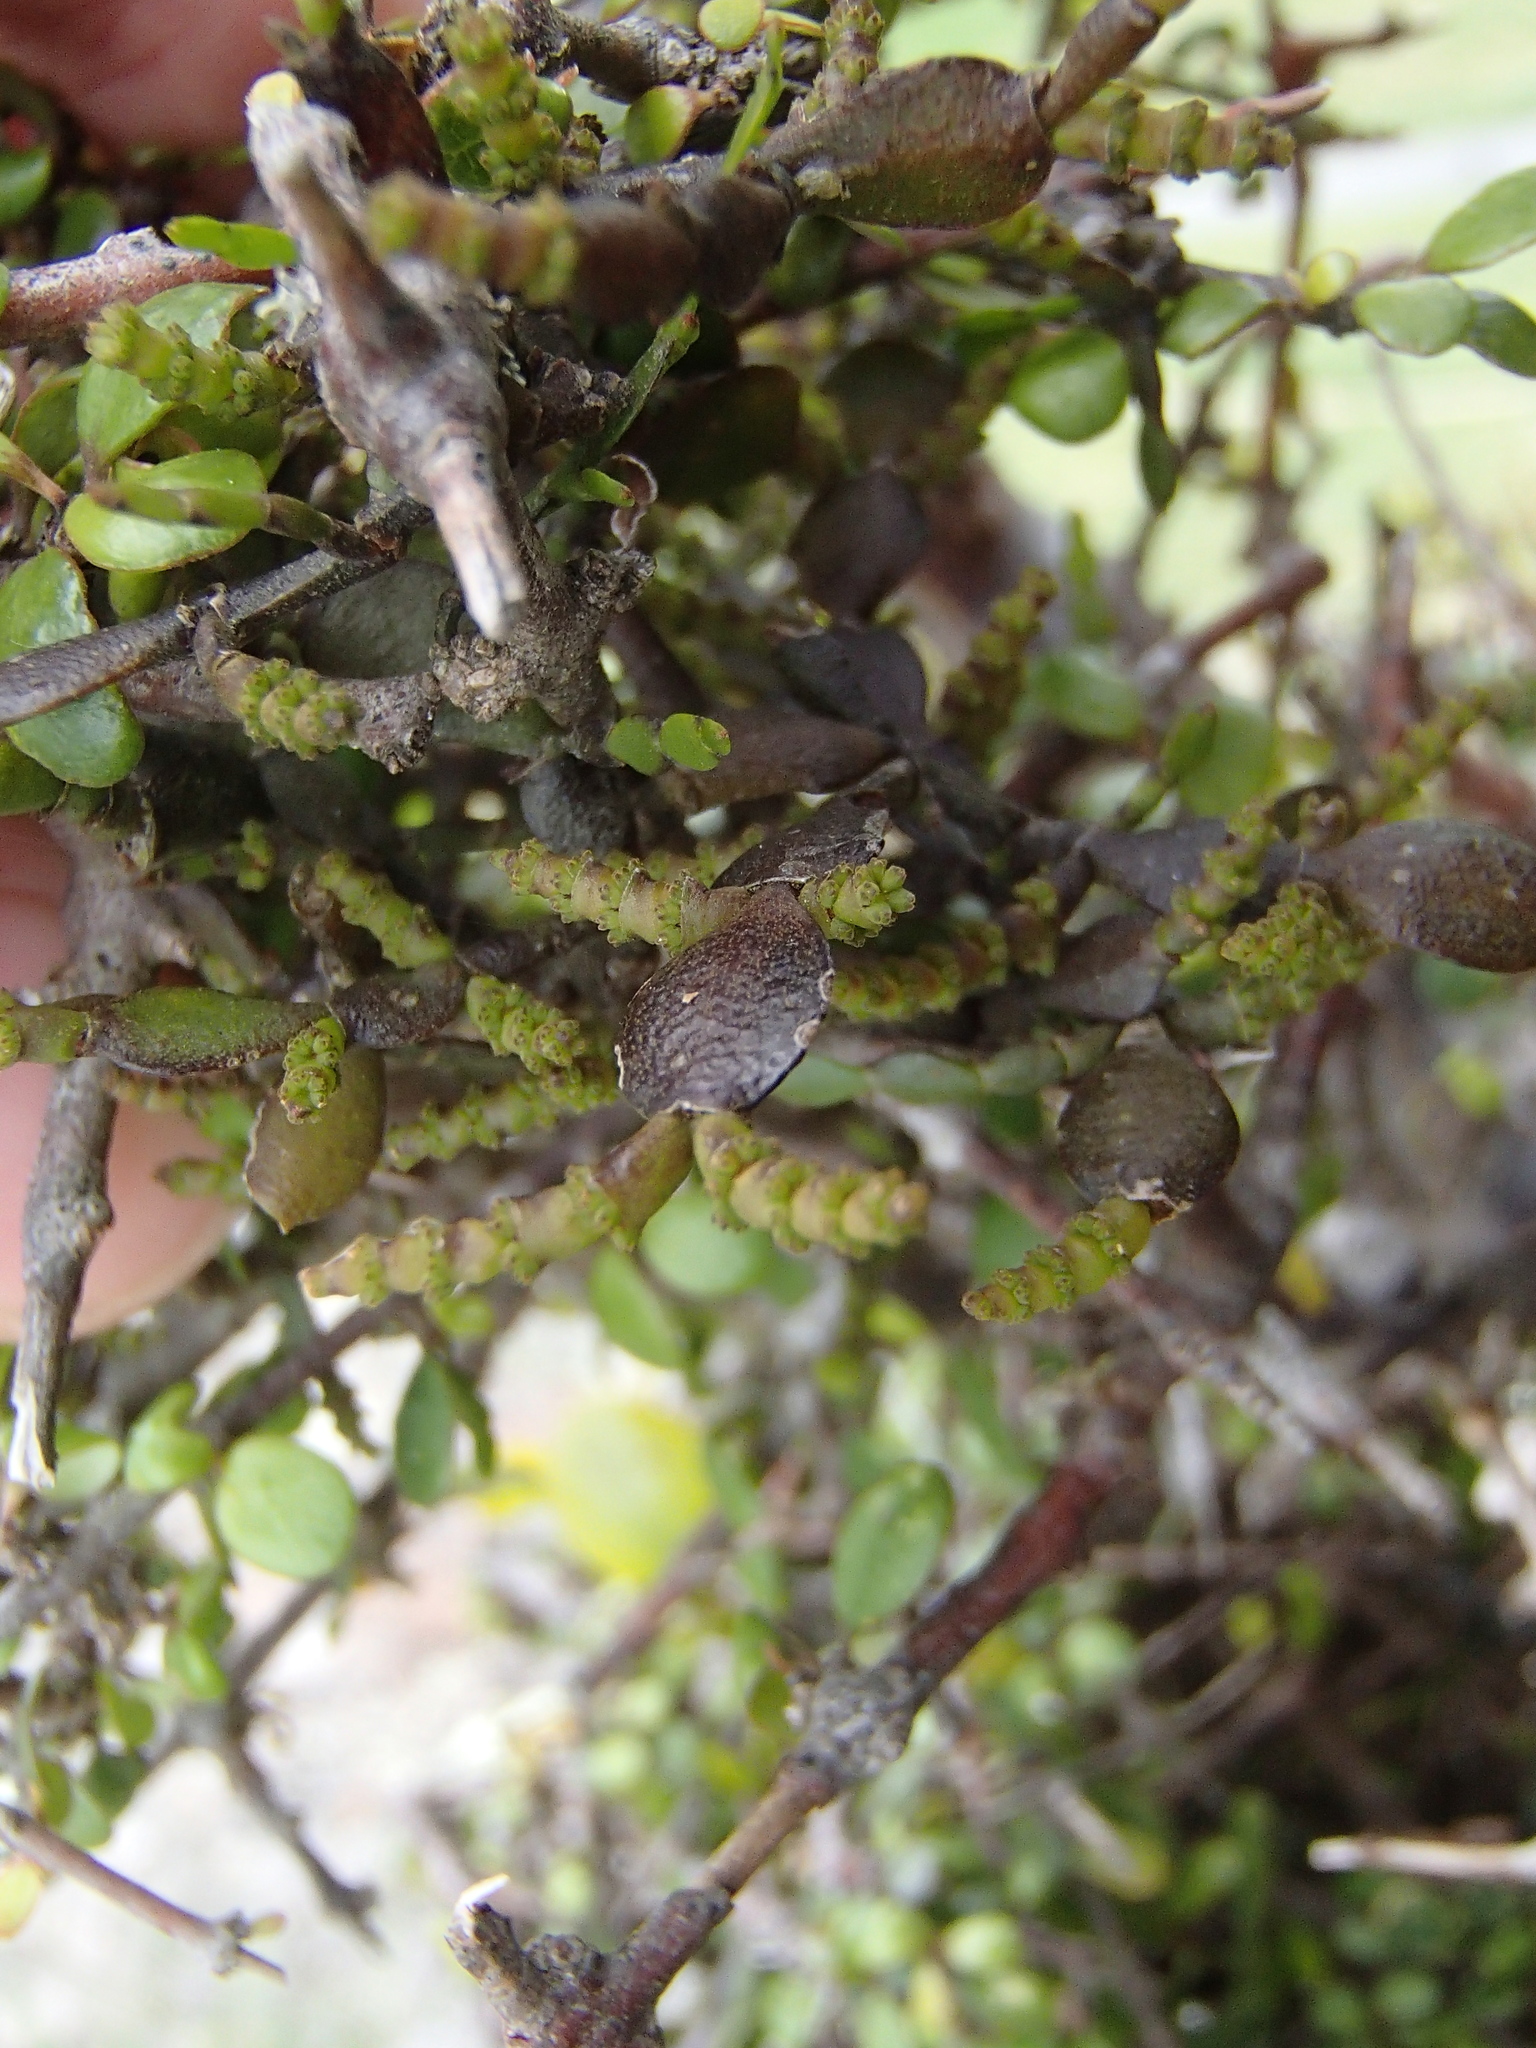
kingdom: Plantae
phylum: Tracheophyta
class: Magnoliopsida
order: Santalales
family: Viscaceae
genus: Korthalsella
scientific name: Korthalsella lindsayi
